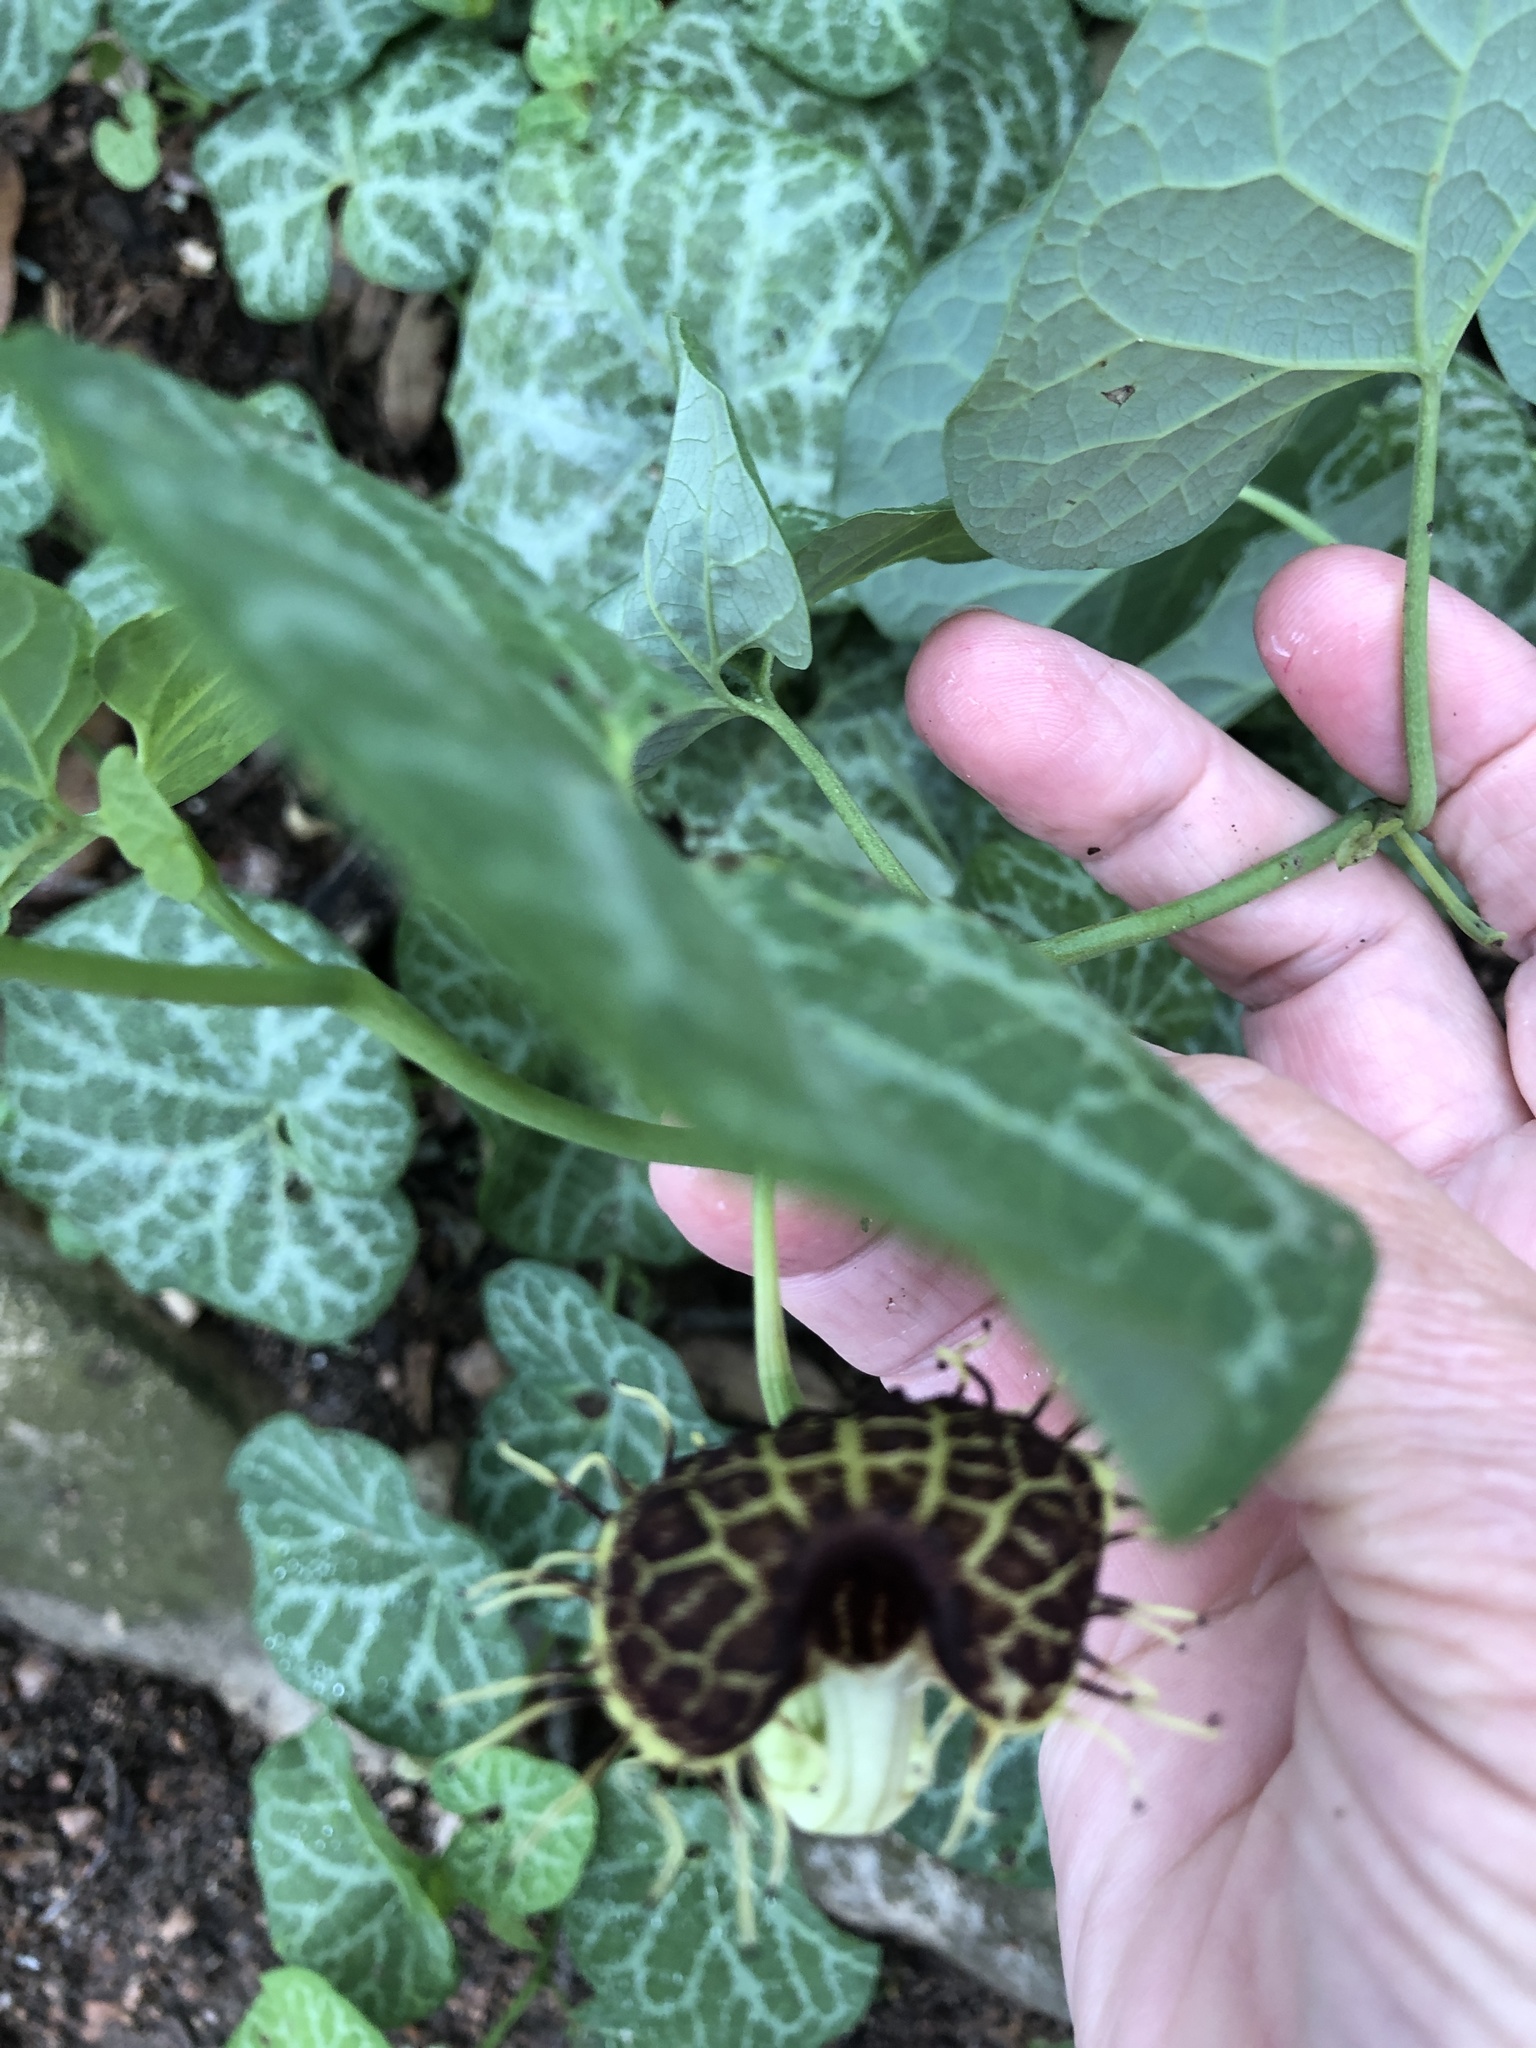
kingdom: Plantae
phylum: Tracheophyta
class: Magnoliopsida
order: Piperales
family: Aristolochiaceae
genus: Aristolochia
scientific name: Aristolochia fimbriata
